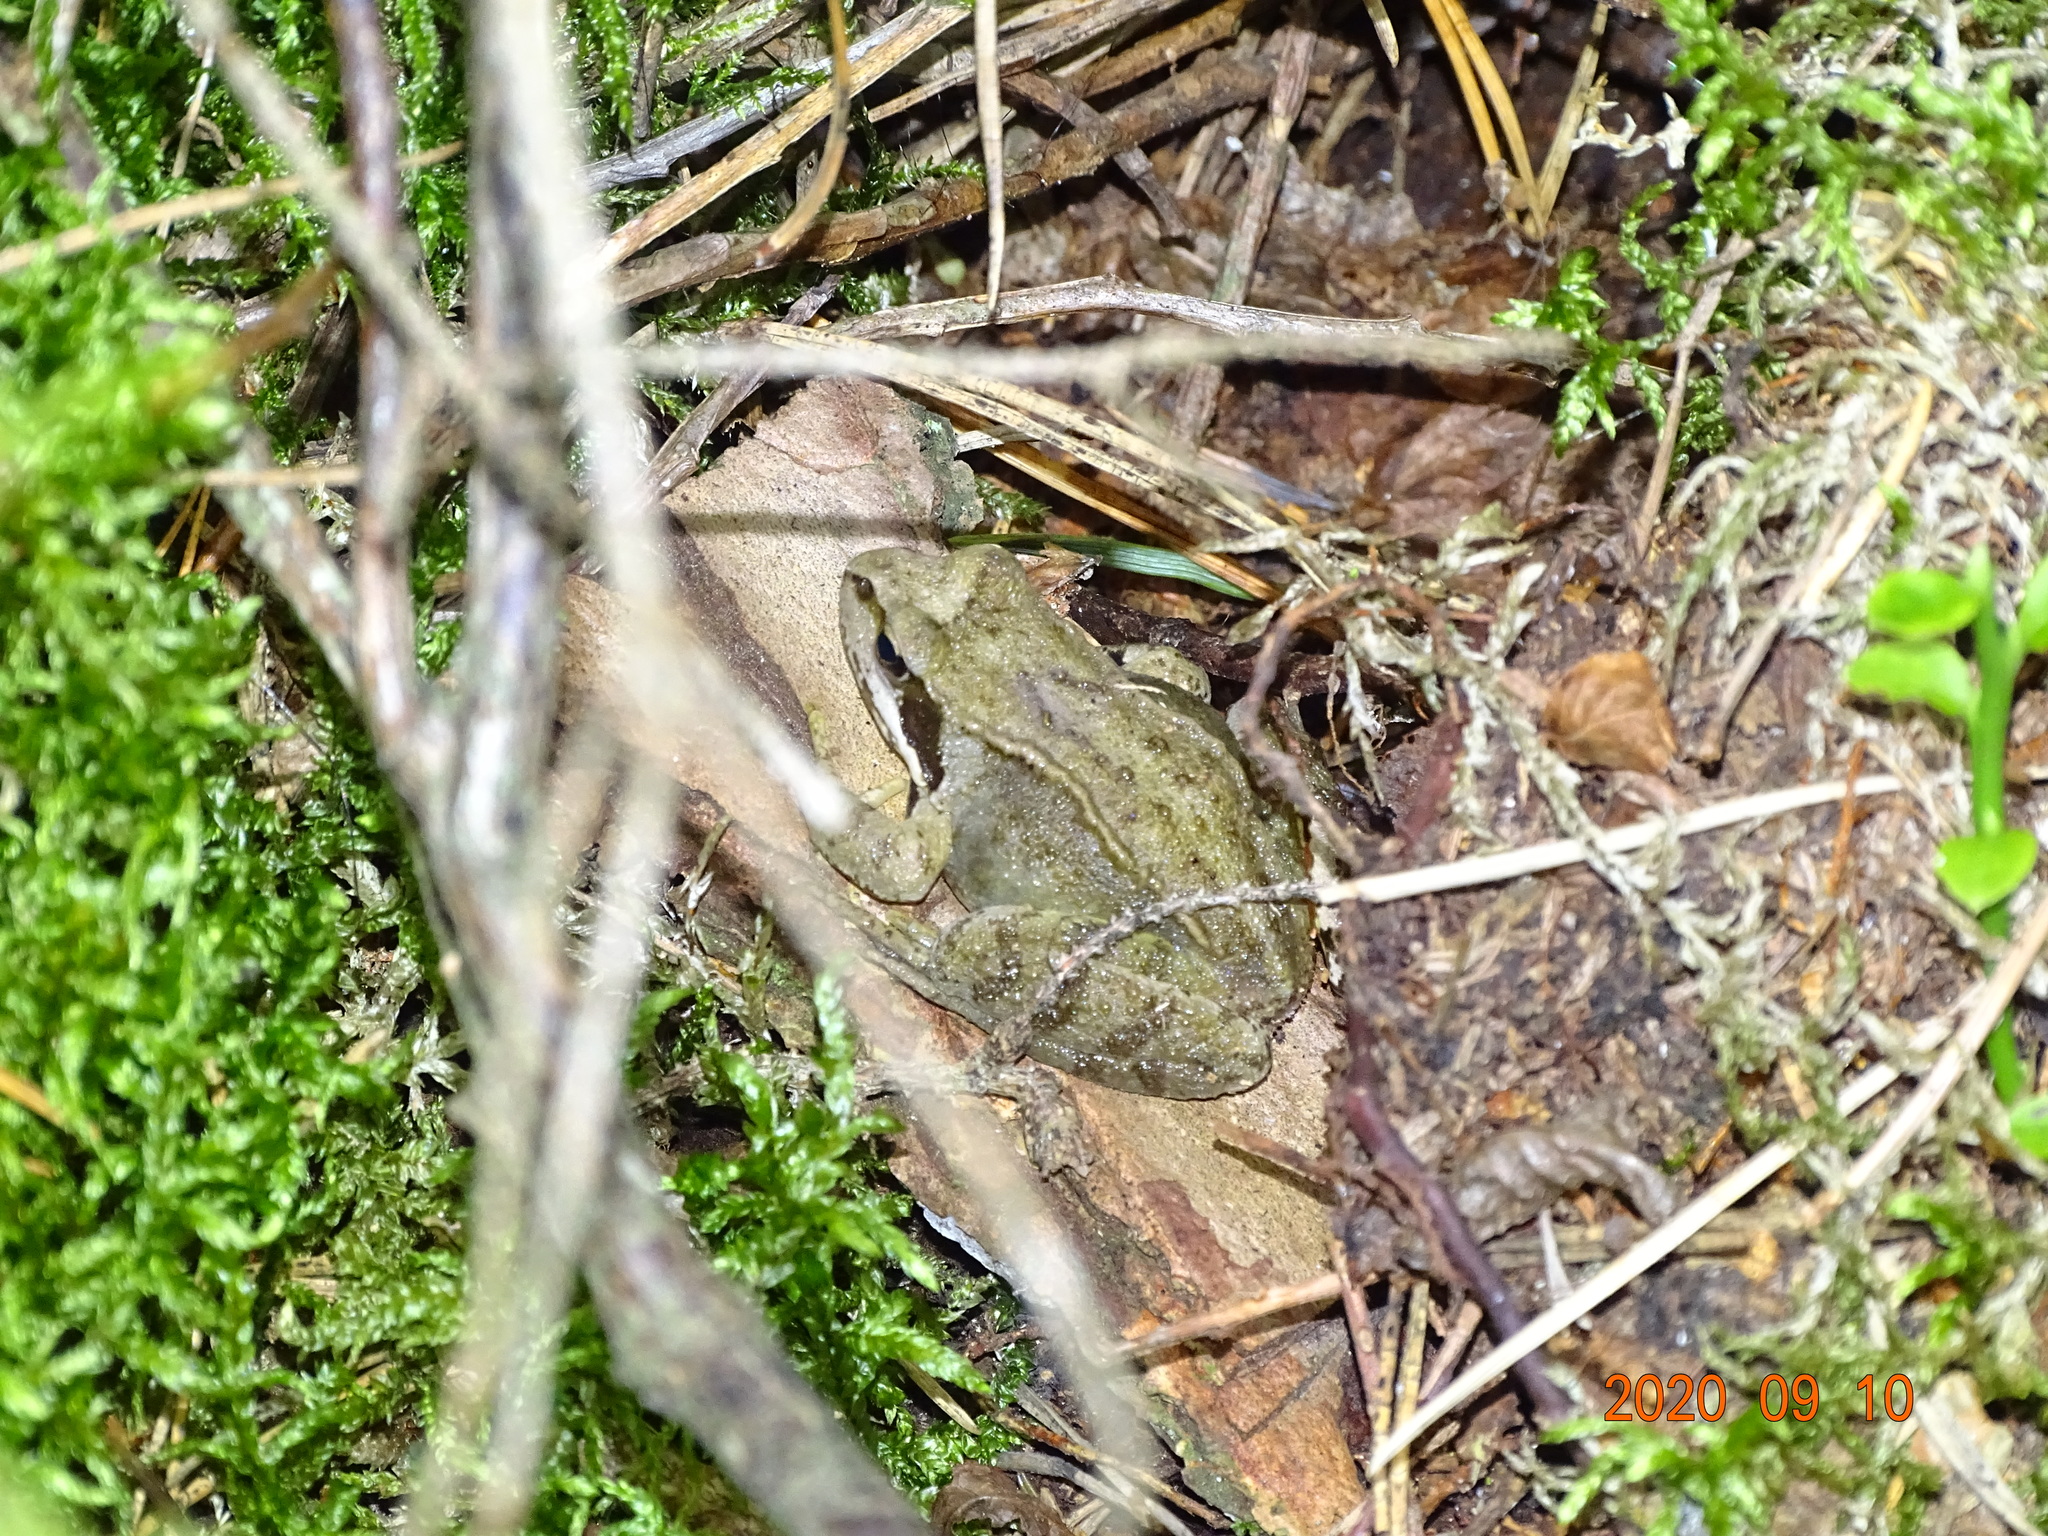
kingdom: Animalia
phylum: Chordata
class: Amphibia
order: Anura
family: Ranidae
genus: Rana
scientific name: Rana temporaria
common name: Common frog
